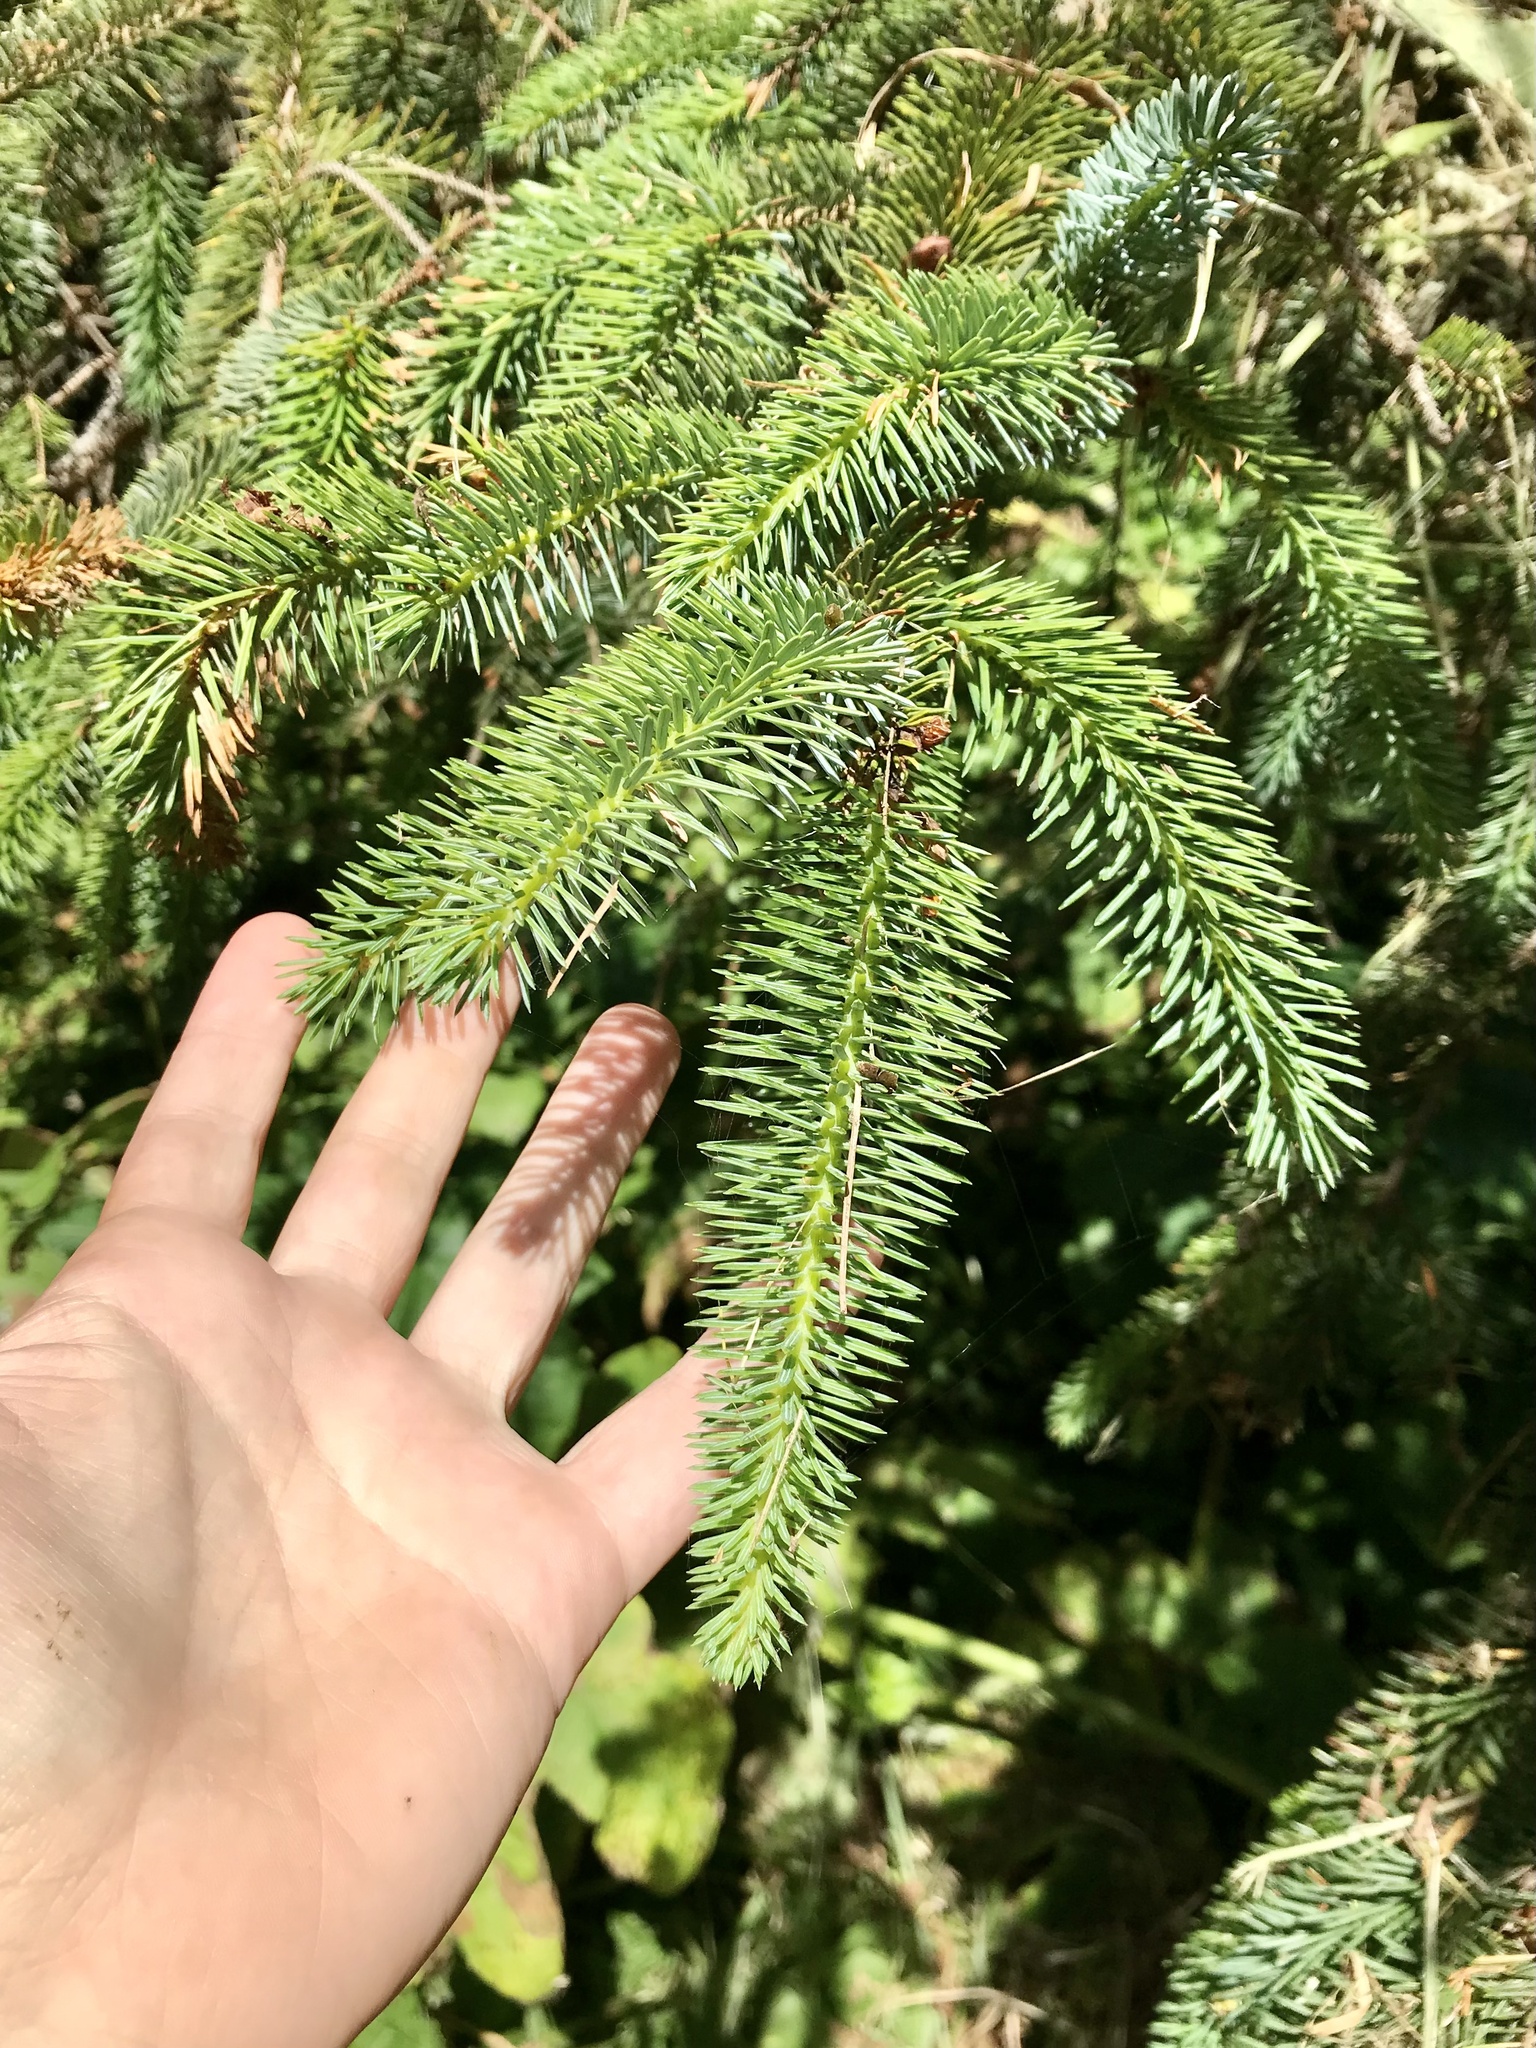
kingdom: Plantae
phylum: Tracheophyta
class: Pinopsida
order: Pinales
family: Pinaceae
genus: Picea
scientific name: Picea sitchensis
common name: Sitka spruce
